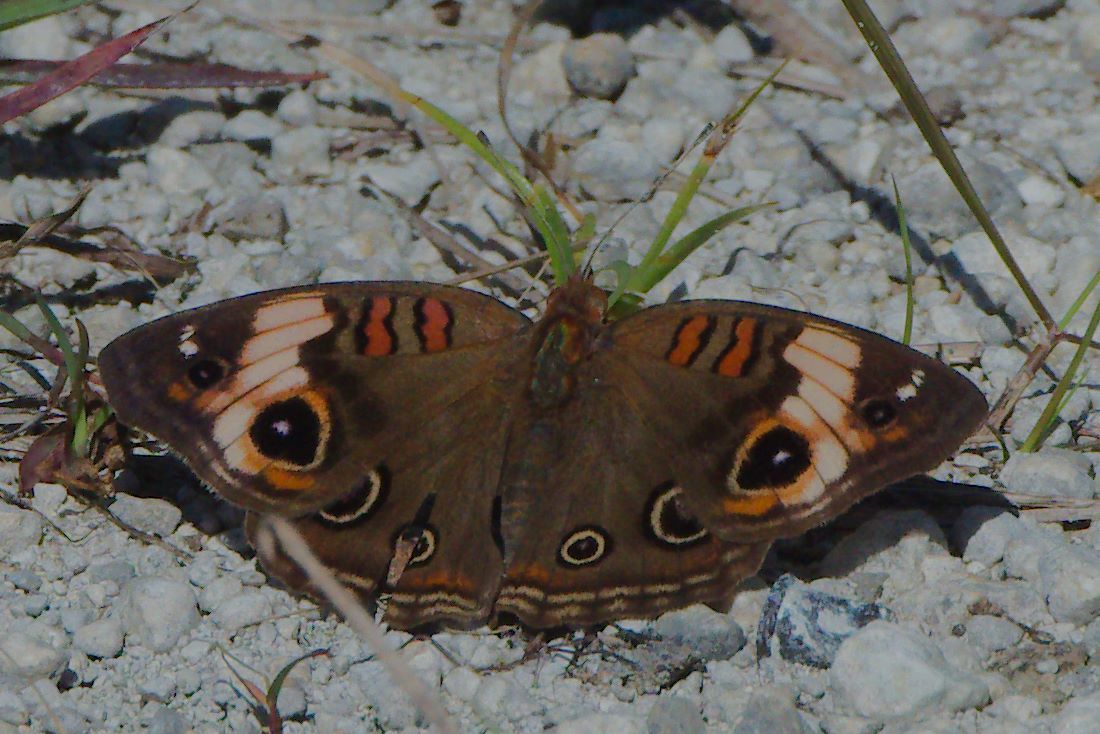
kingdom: Animalia
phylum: Arthropoda
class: Insecta
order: Lepidoptera
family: Nymphalidae
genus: Junonia
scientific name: Junonia lavinia
